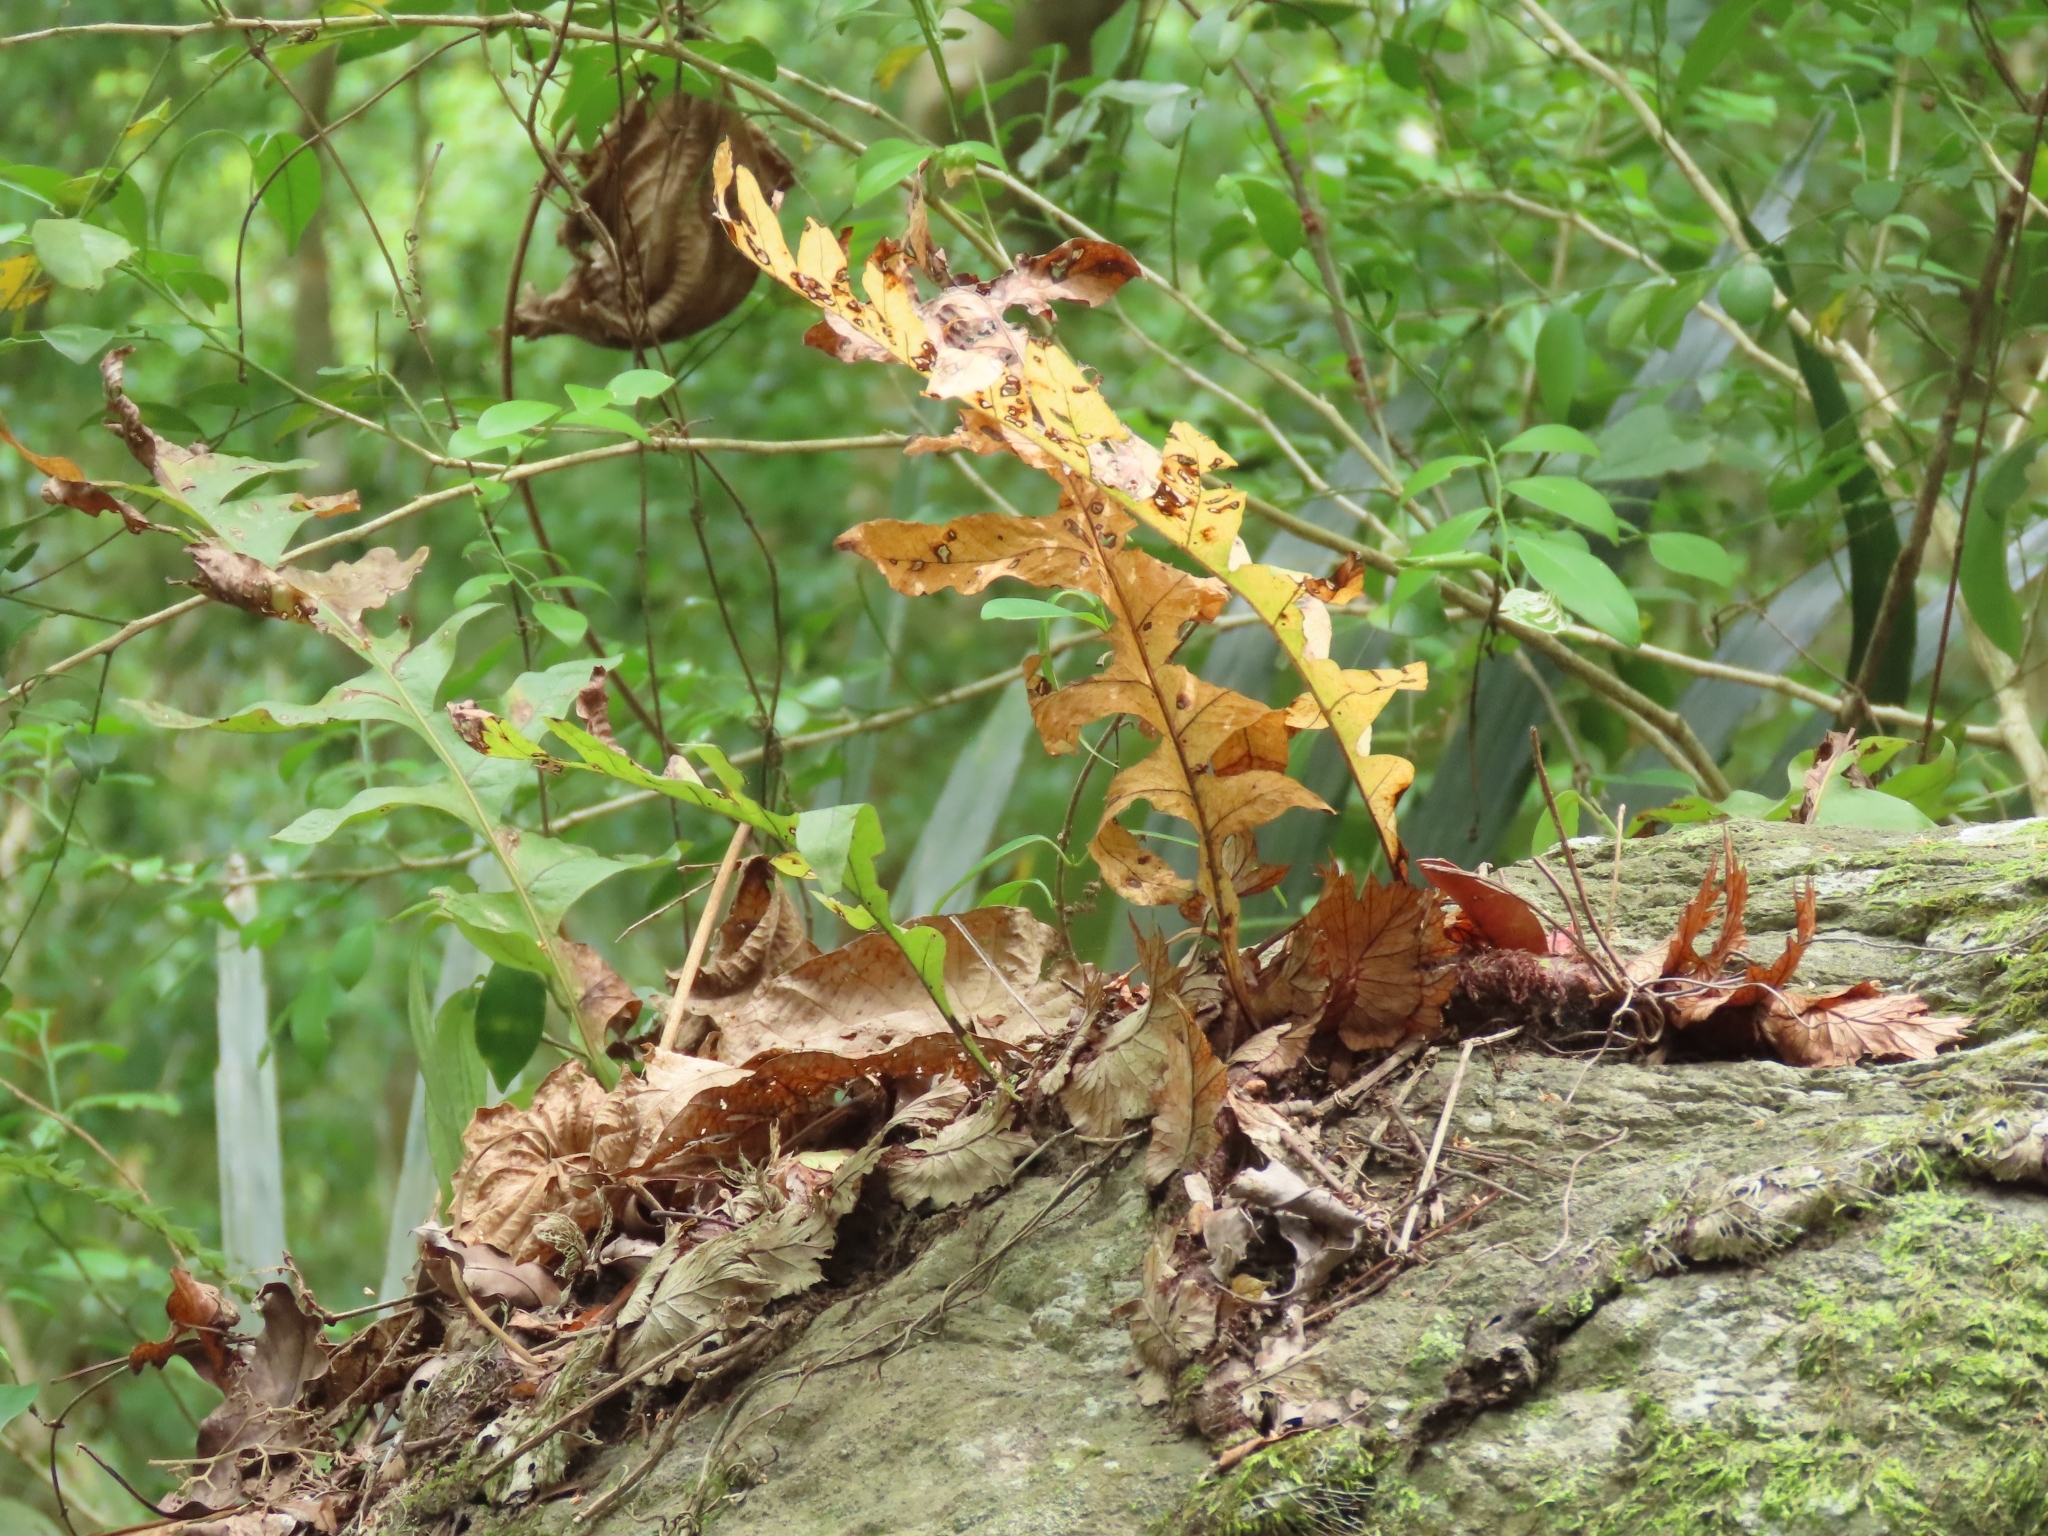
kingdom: Plantae
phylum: Tracheophyta
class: Polypodiopsida
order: Polypodiales
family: Polypodiaceae
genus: Drynaria
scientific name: Drynaria roosii
